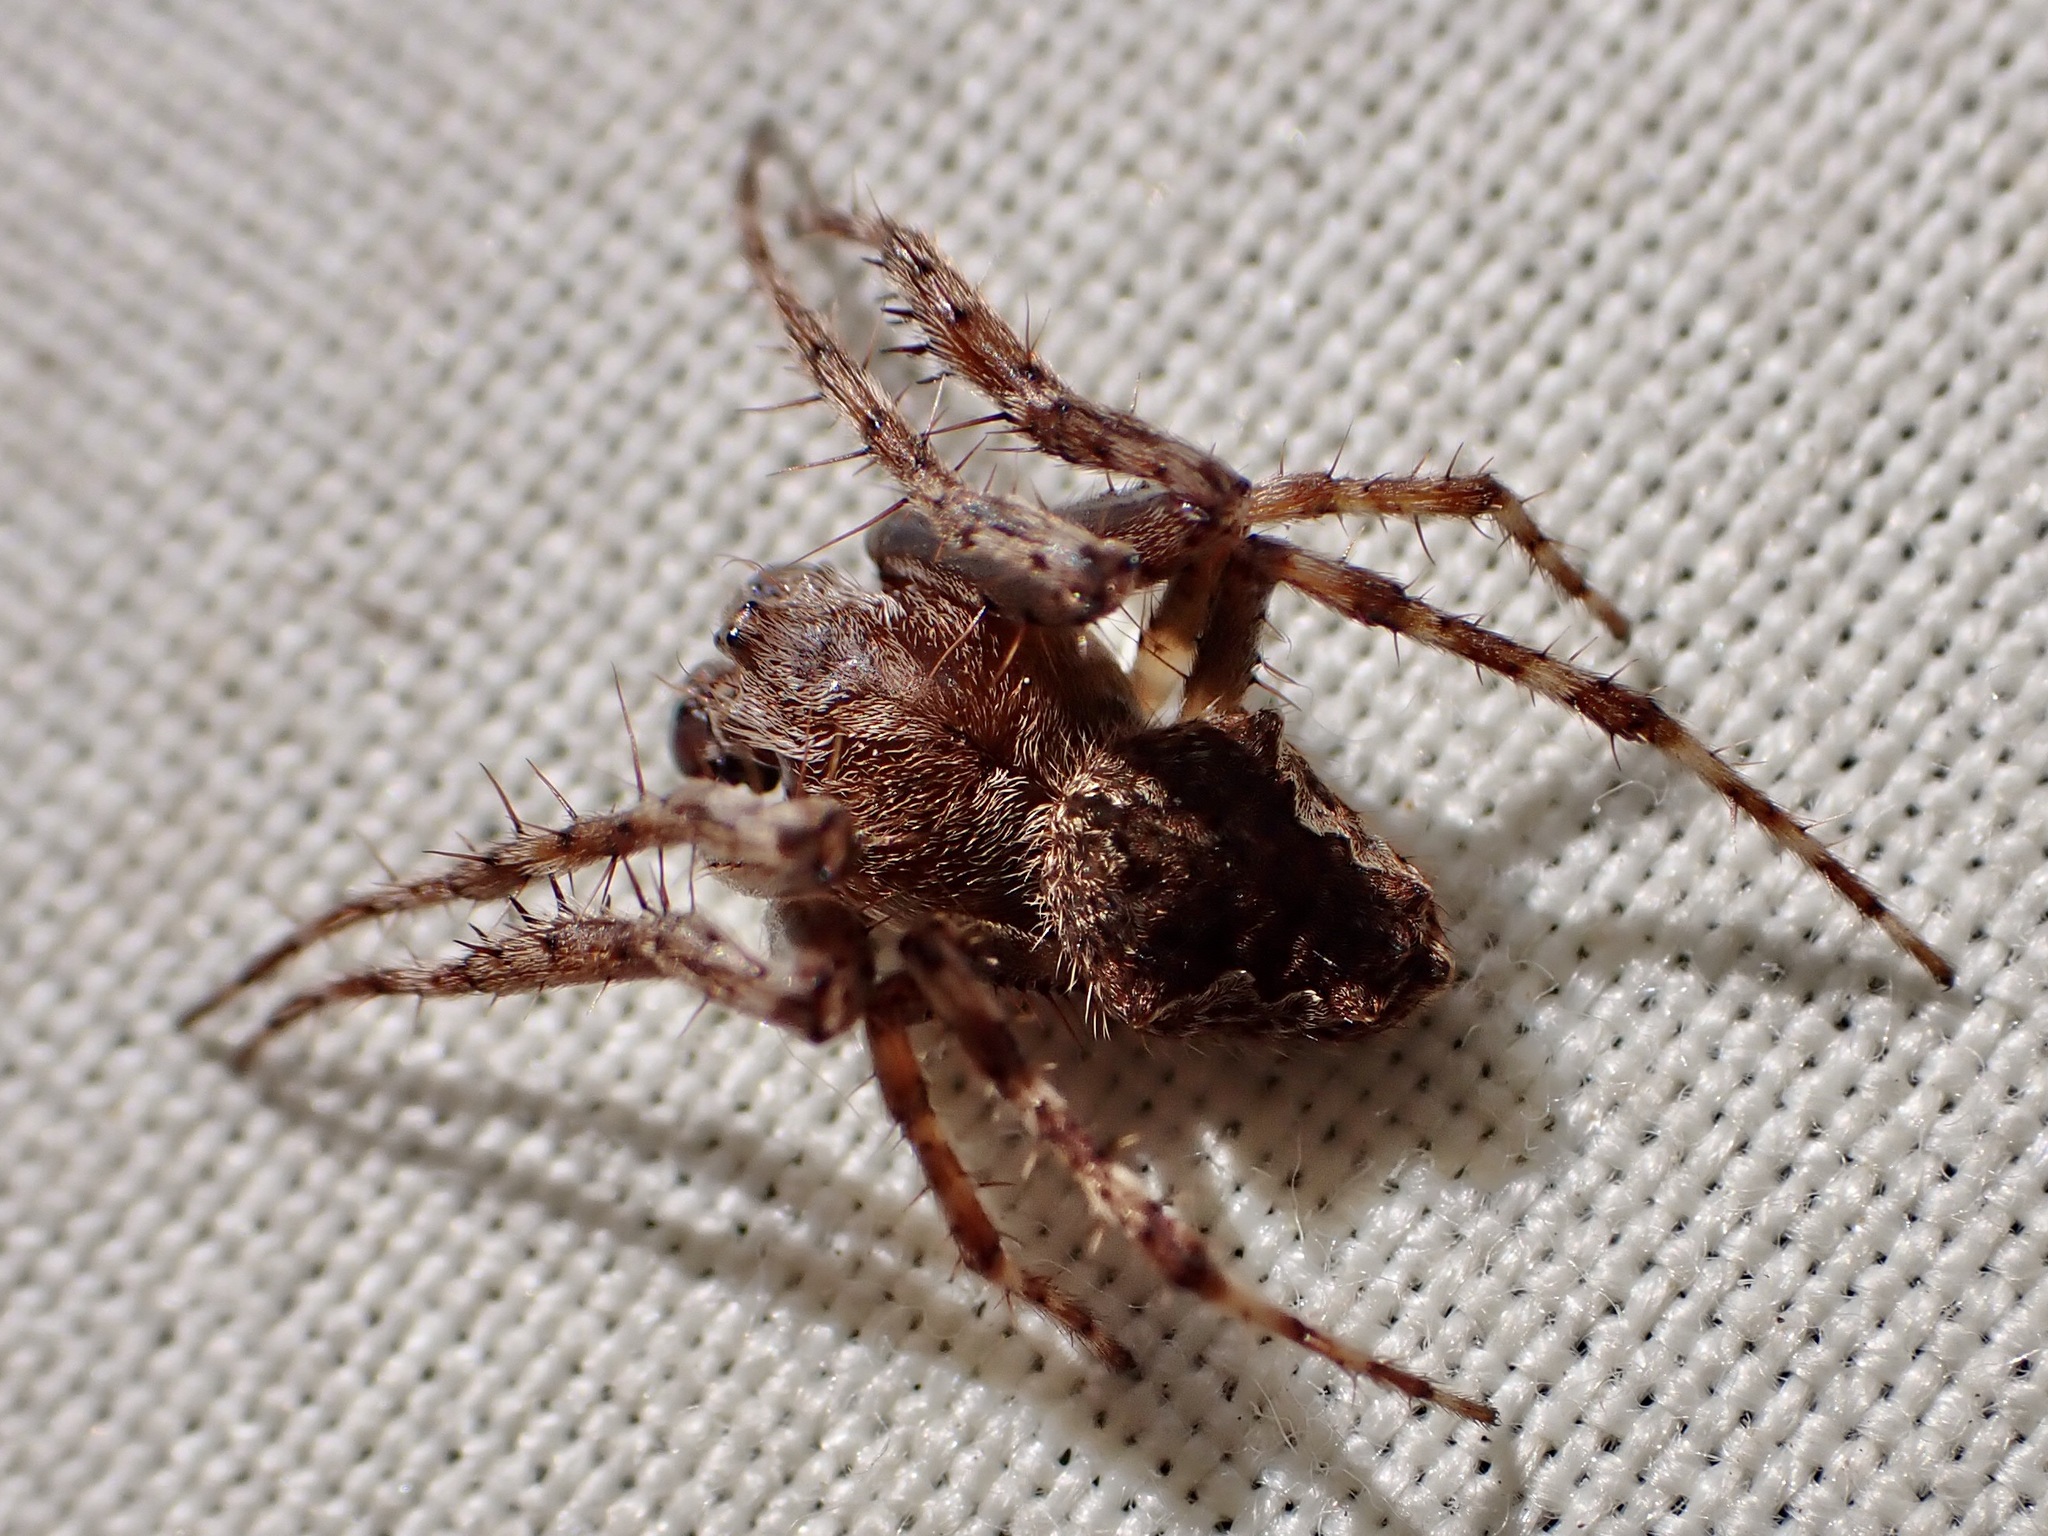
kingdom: Animalia
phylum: Arthropoda
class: Arachnida
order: Araneae
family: Araneidae
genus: Eriophora
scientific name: Eriophora pustulosa
